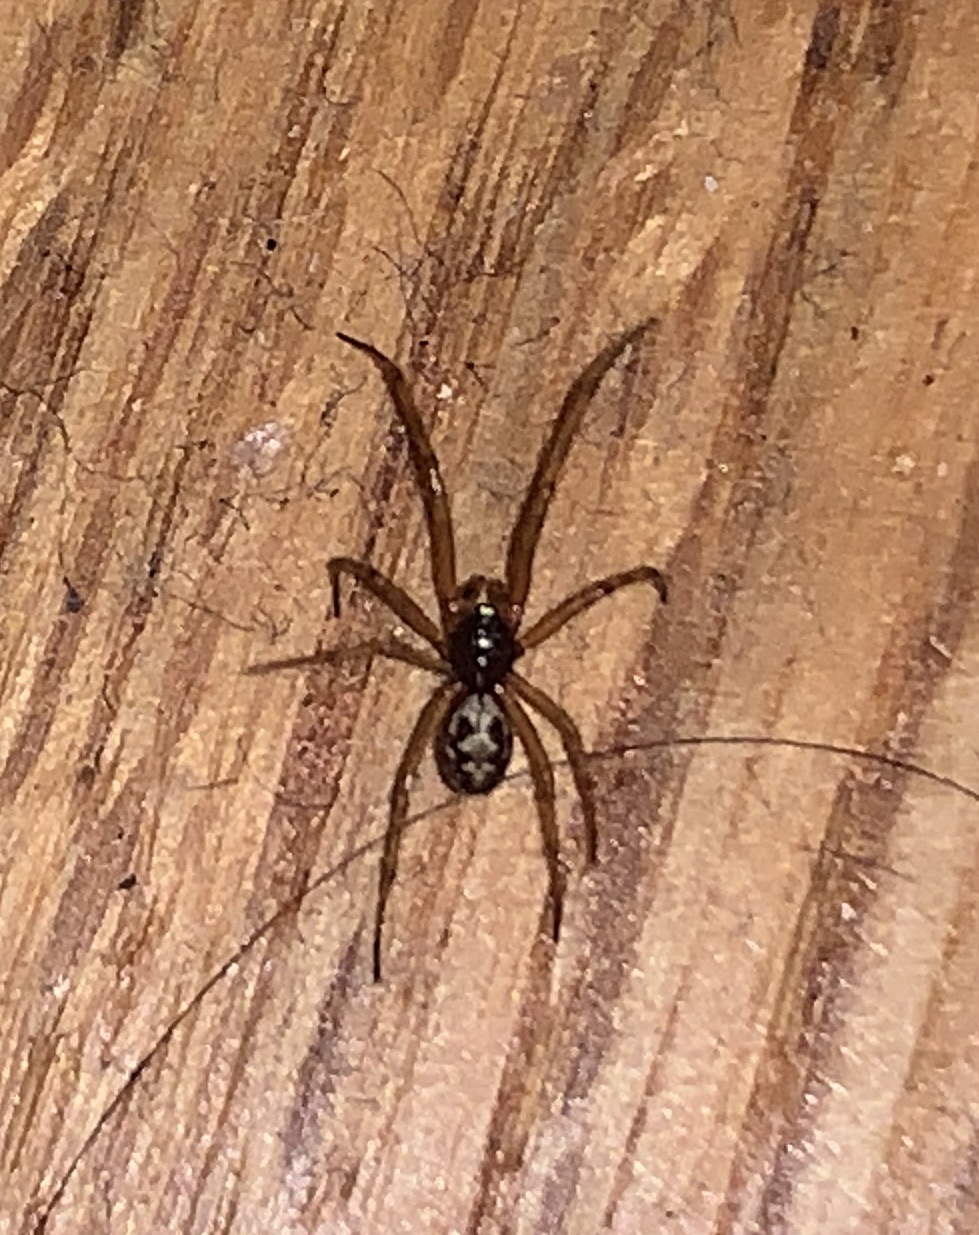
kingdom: Animalia
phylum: Arthropoda
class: Arachnida
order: Araneae
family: Theridiidae
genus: Steatoda
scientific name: Steatoda triangulosa
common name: Triangulate bud spider
